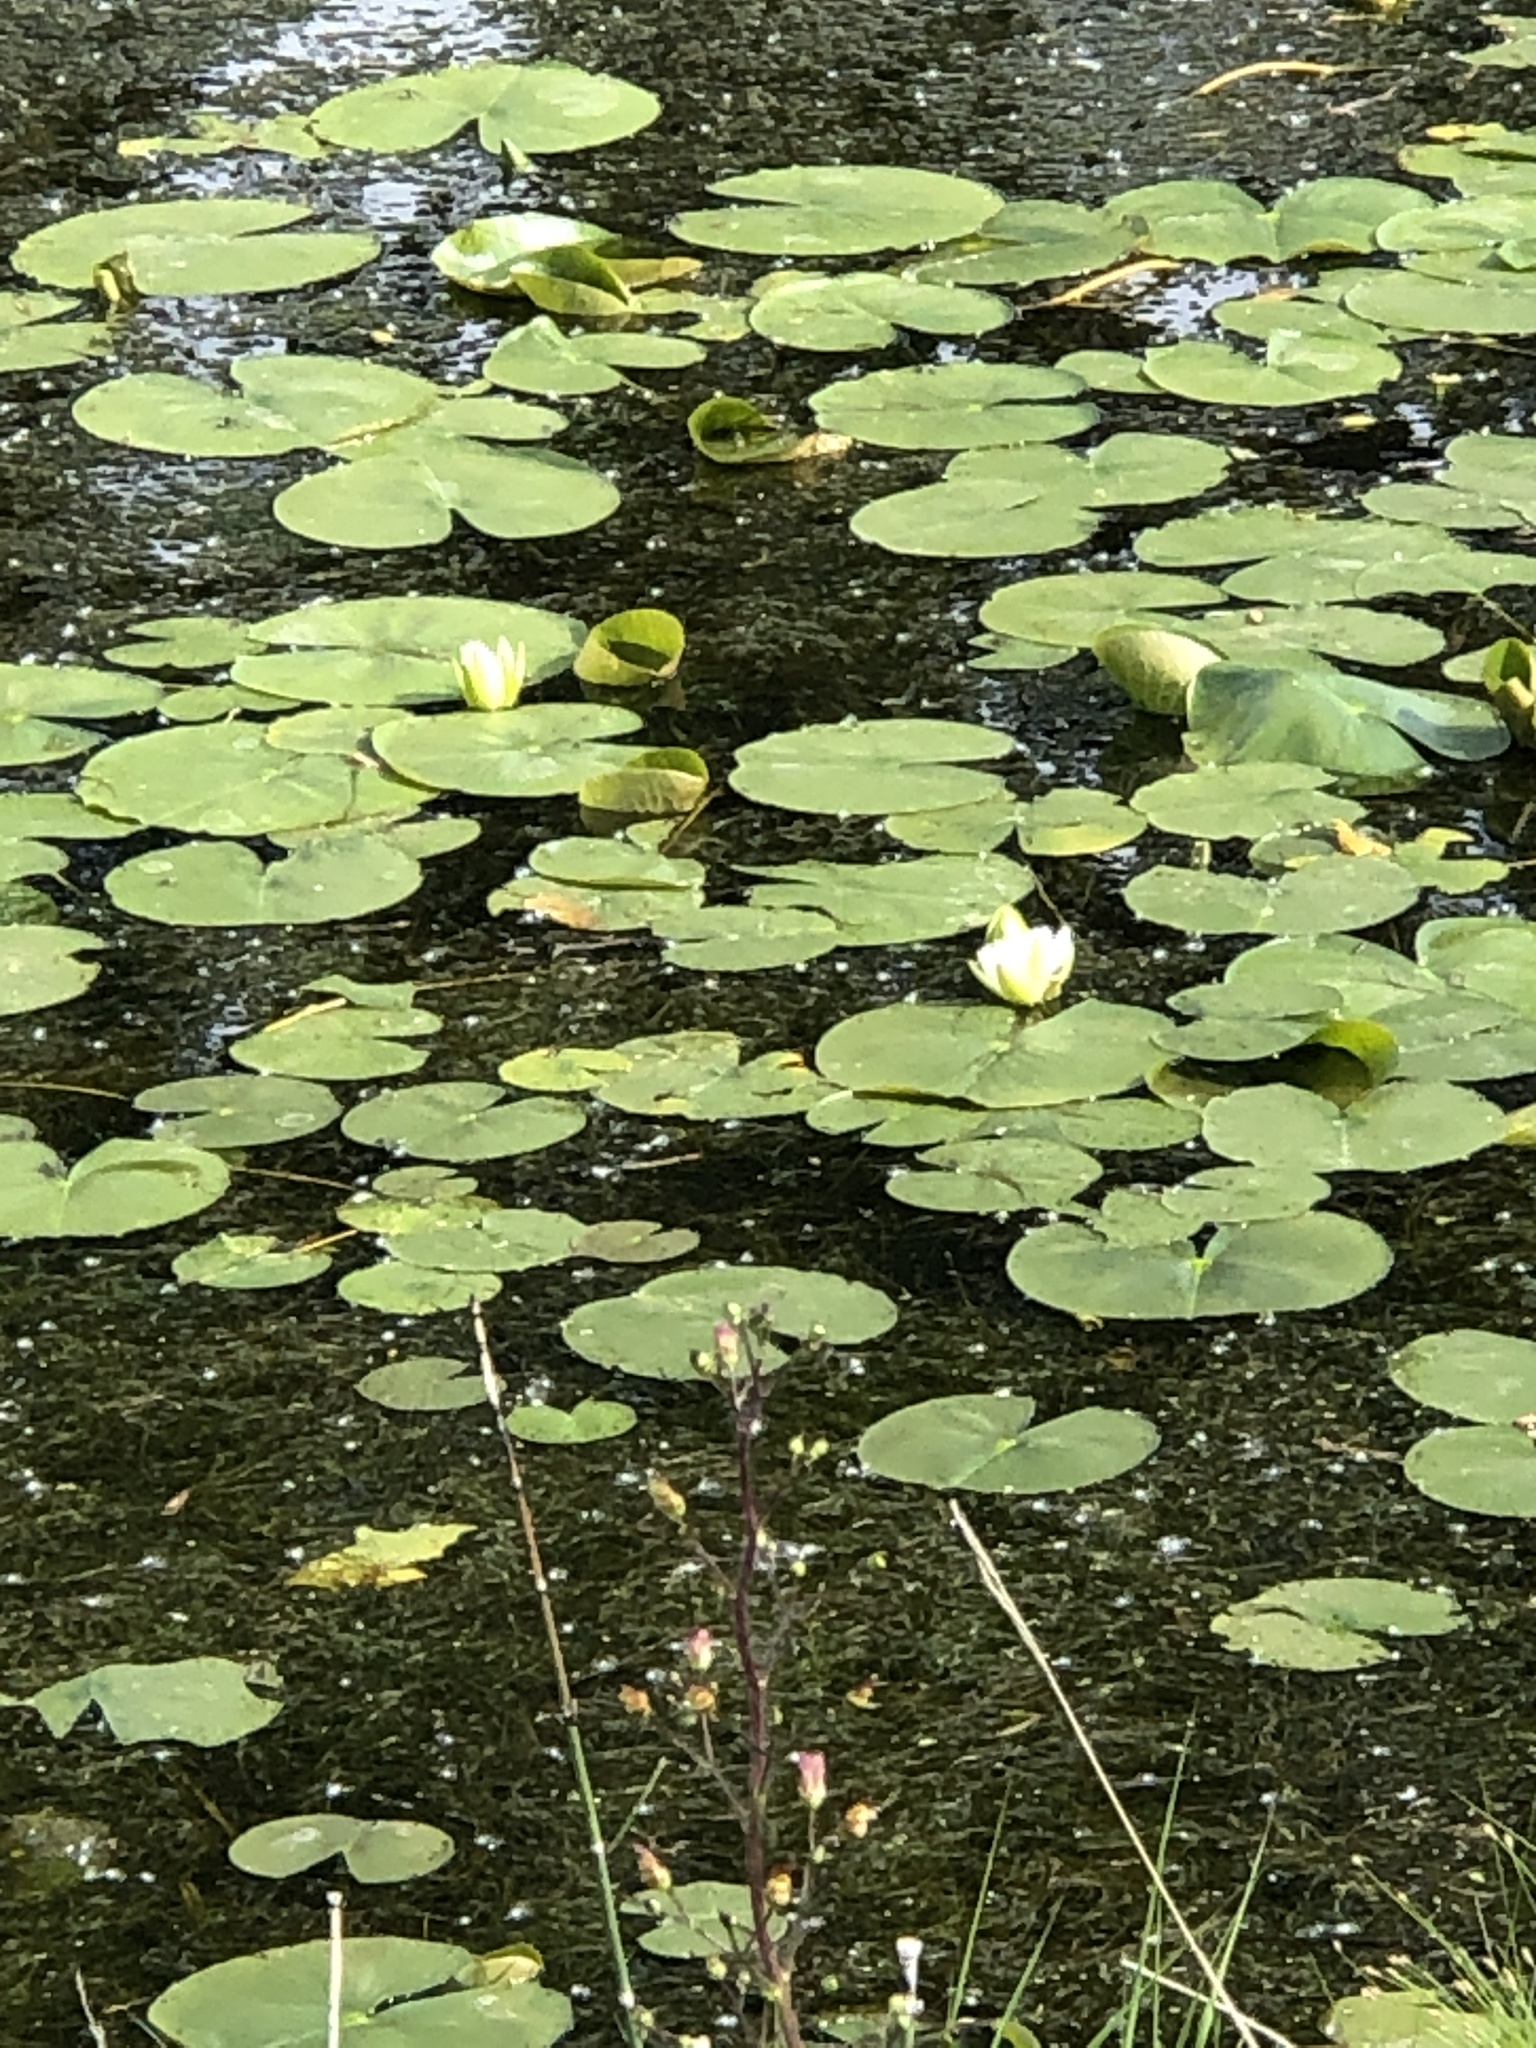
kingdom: Plantae
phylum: Tracheophyta
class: Magnoliopsida
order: Nymphaeales
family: Nymphaeaceae
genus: Nymphaea
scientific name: Nymphaea odorata
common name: Fragrant water-lily
